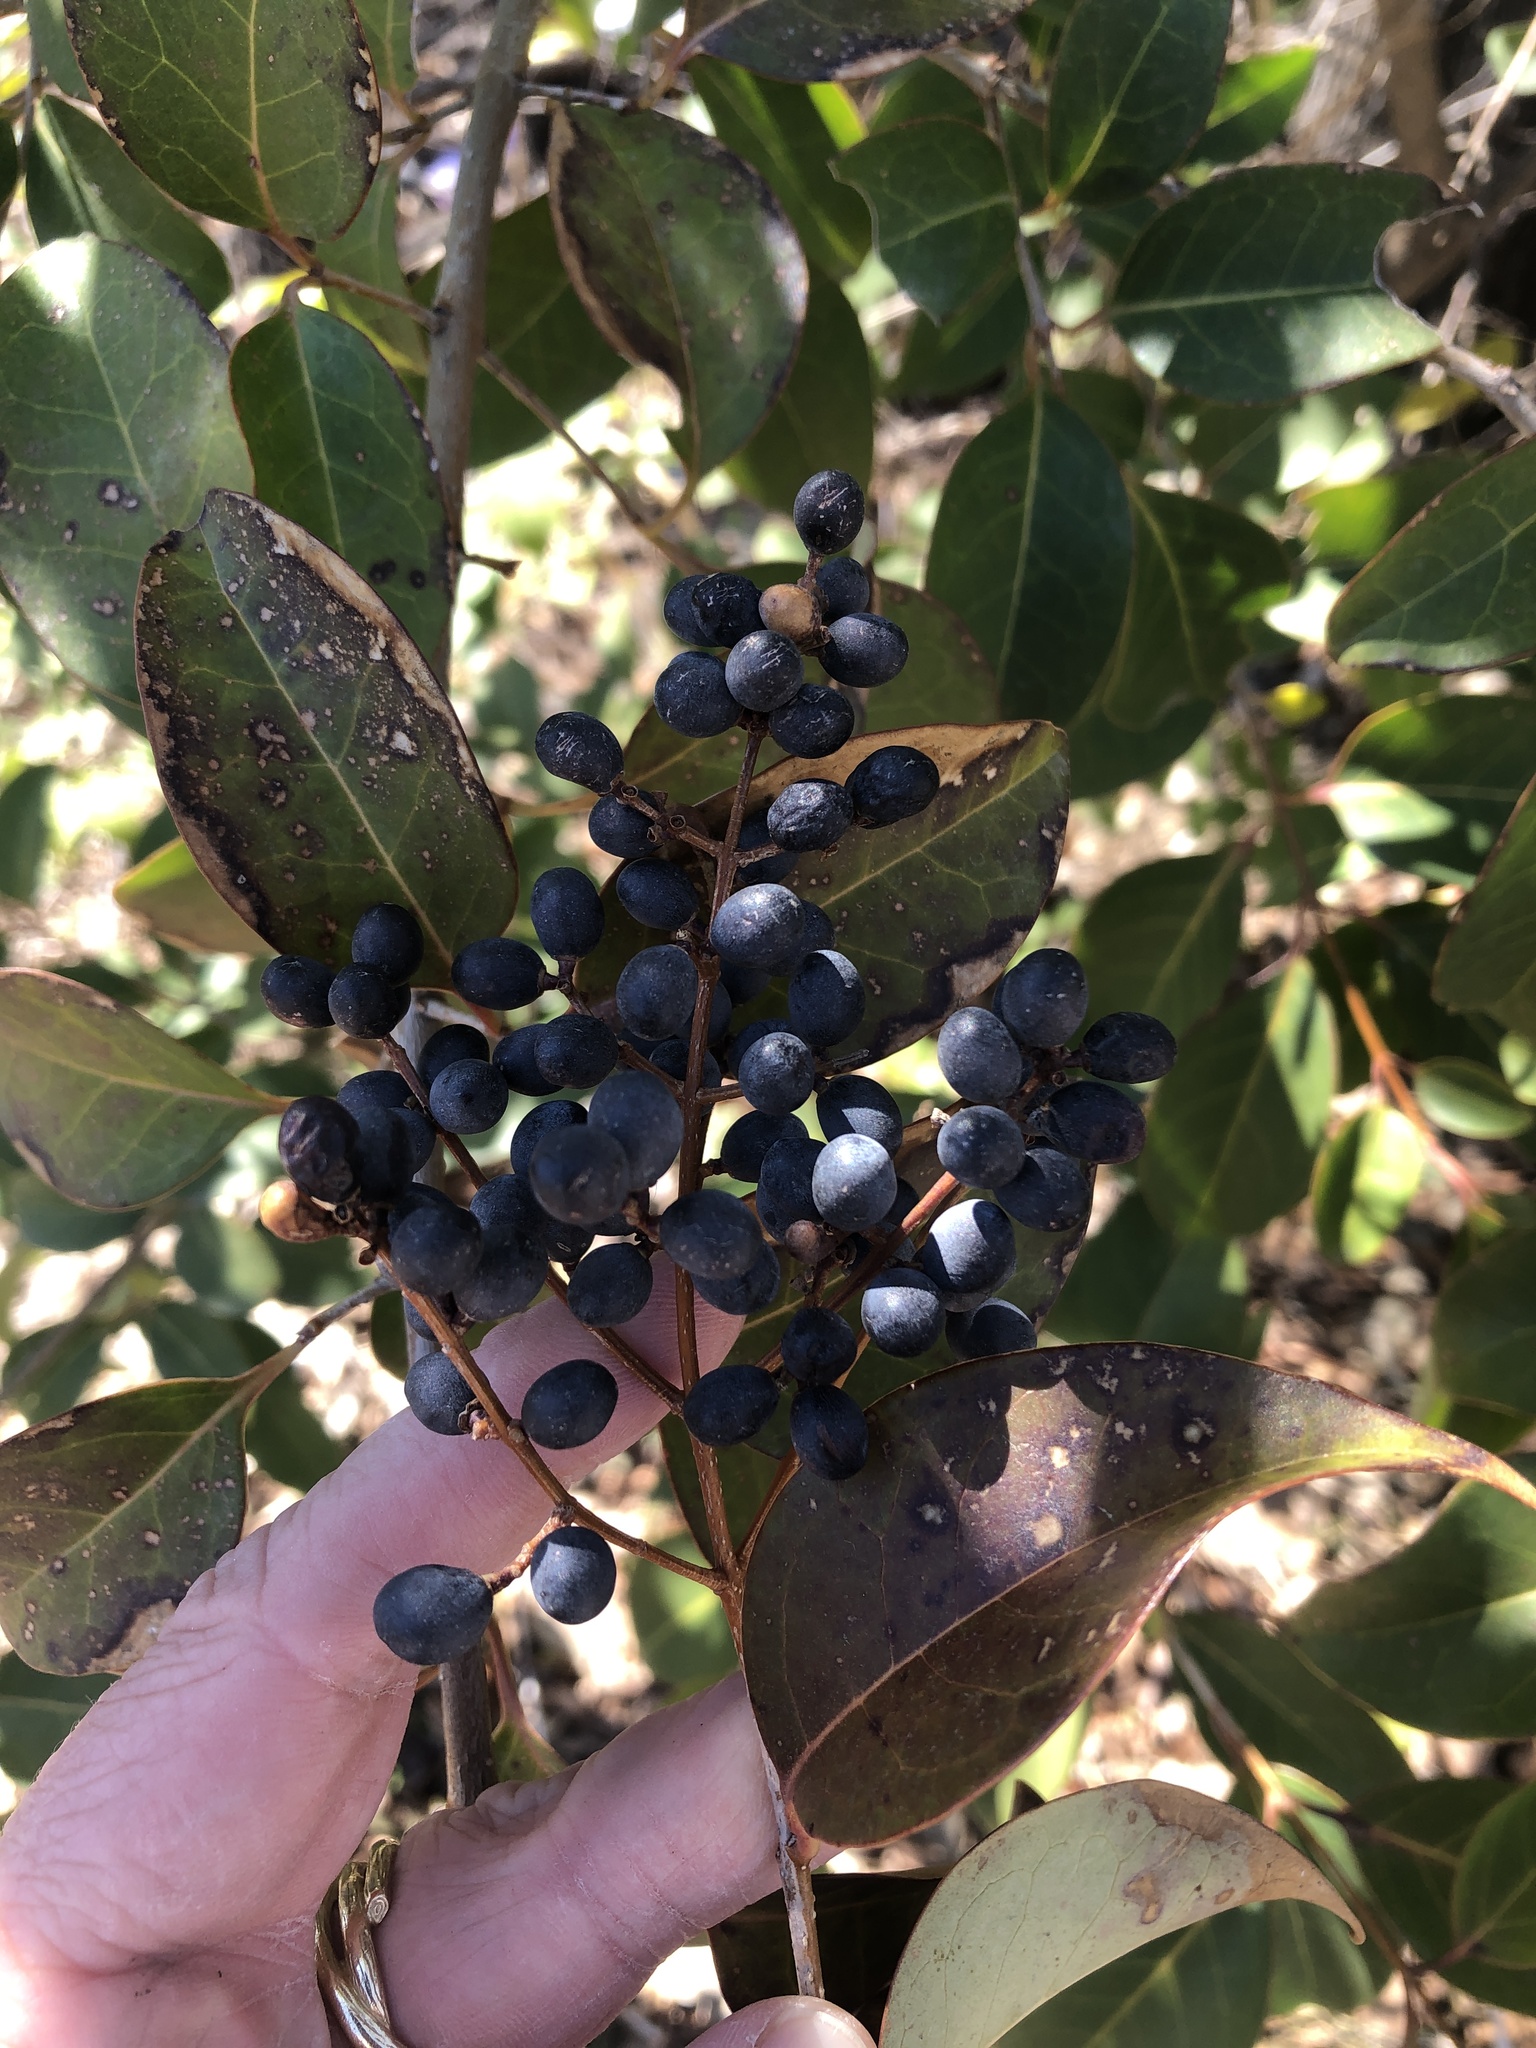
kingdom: Plantae
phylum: Tracheophyta
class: Magnoliopsida
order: Lamiales
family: Oleaceae
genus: Ligustrum
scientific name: Ligustrum lucidum
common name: Glossy privet
